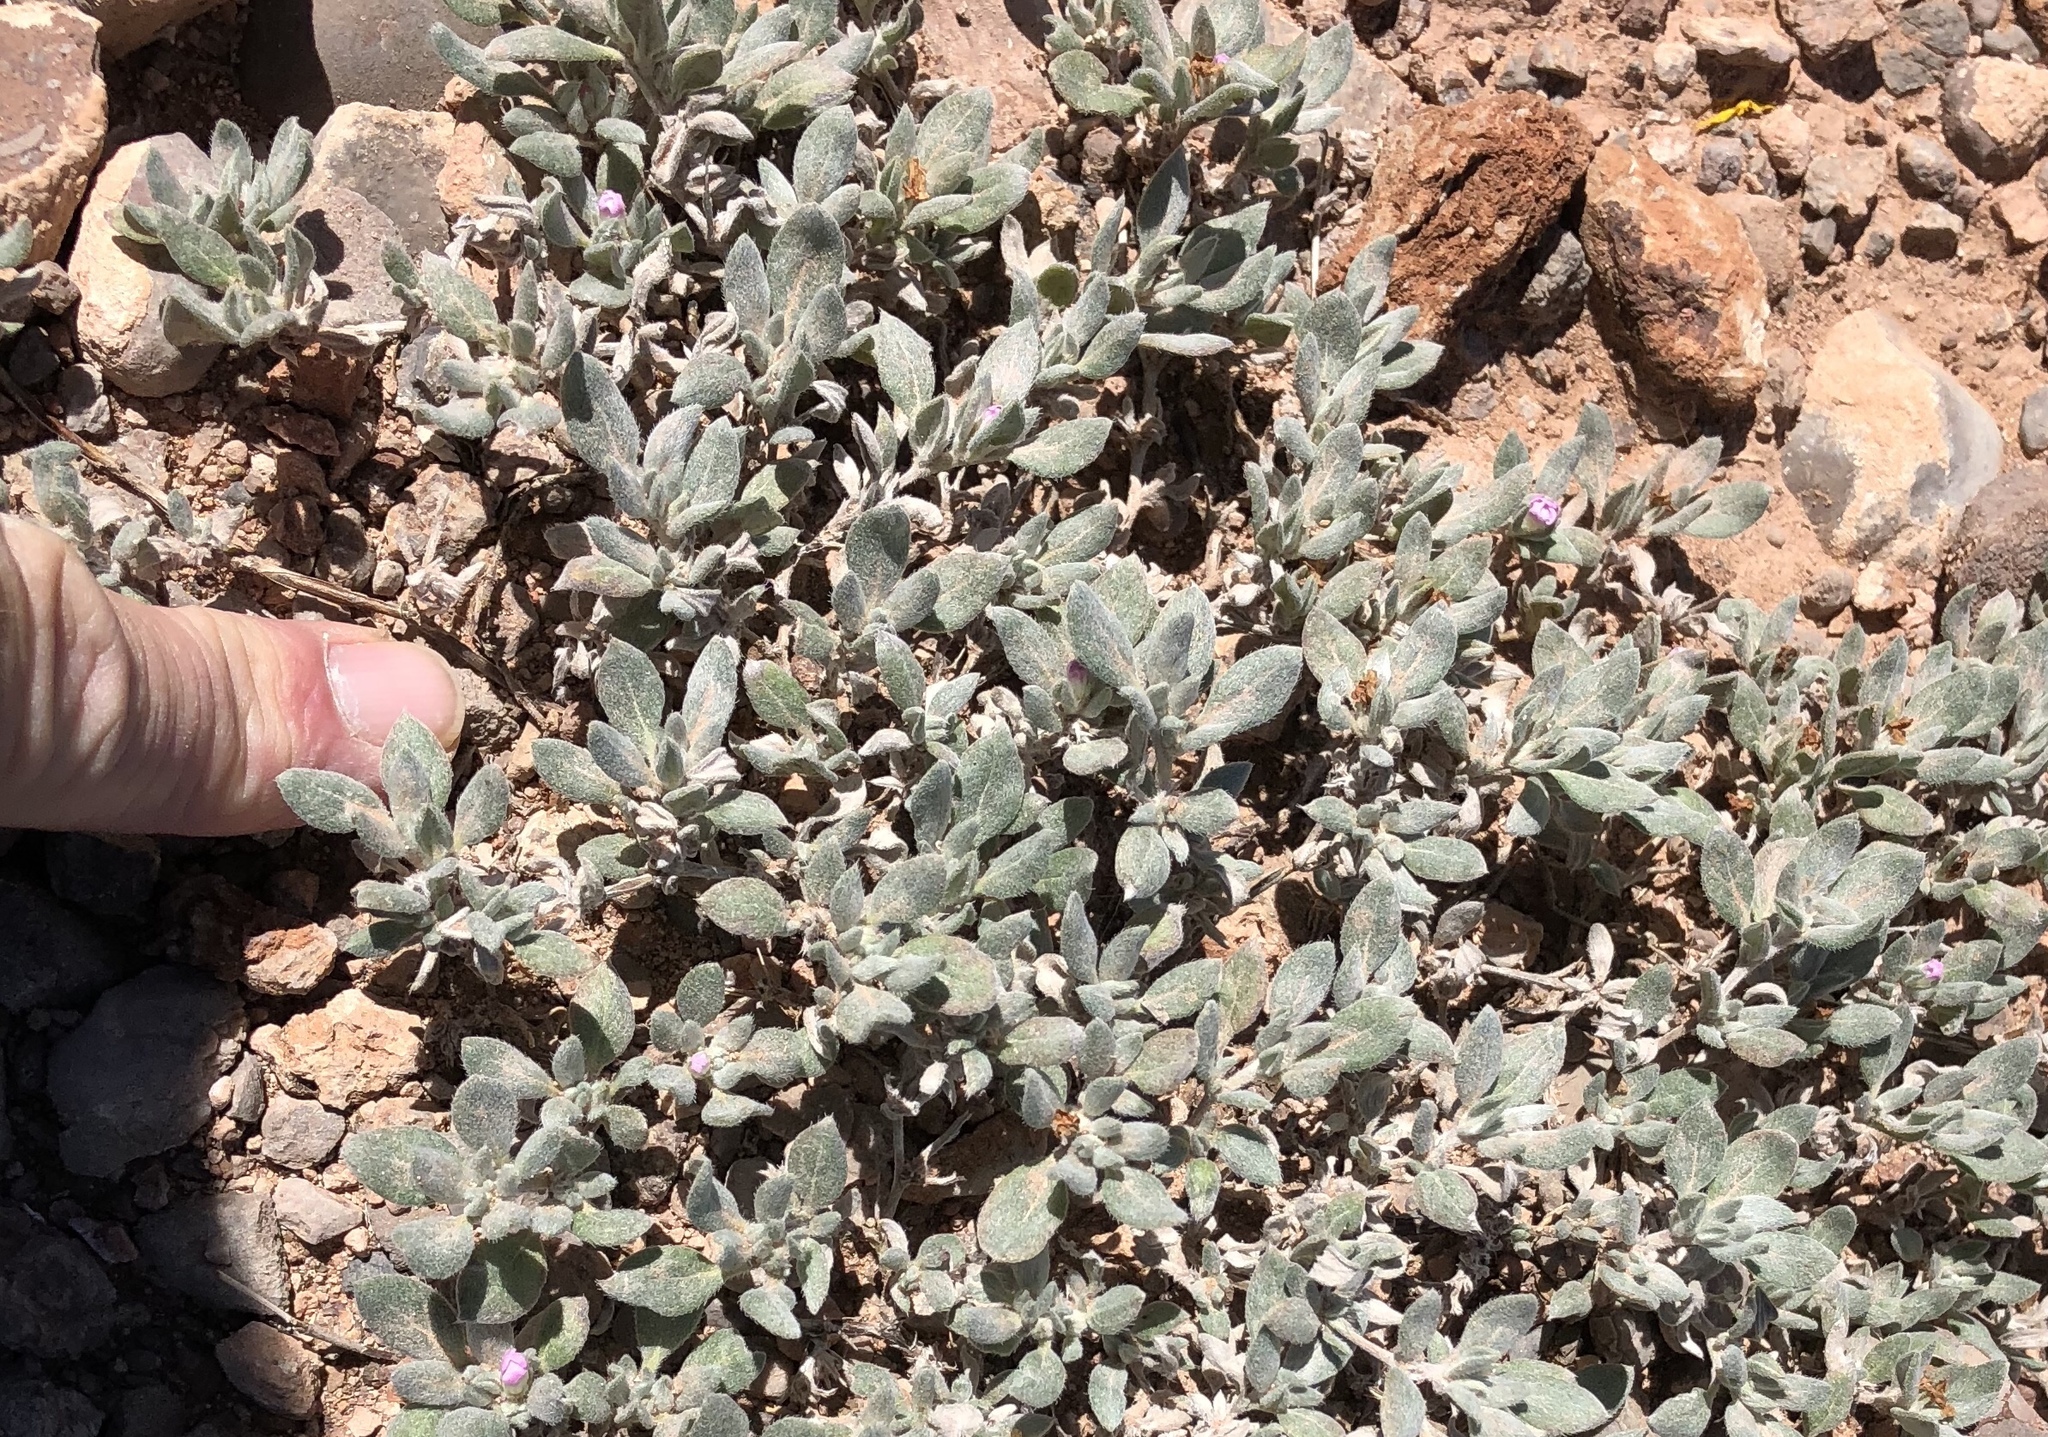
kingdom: Plantae
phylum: Tracheophyta
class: Magnoliopsida
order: Boraginales
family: Ehretiaceae
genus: Tiquilia
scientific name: Tiquilia canescens
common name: Hairy tiquilia
